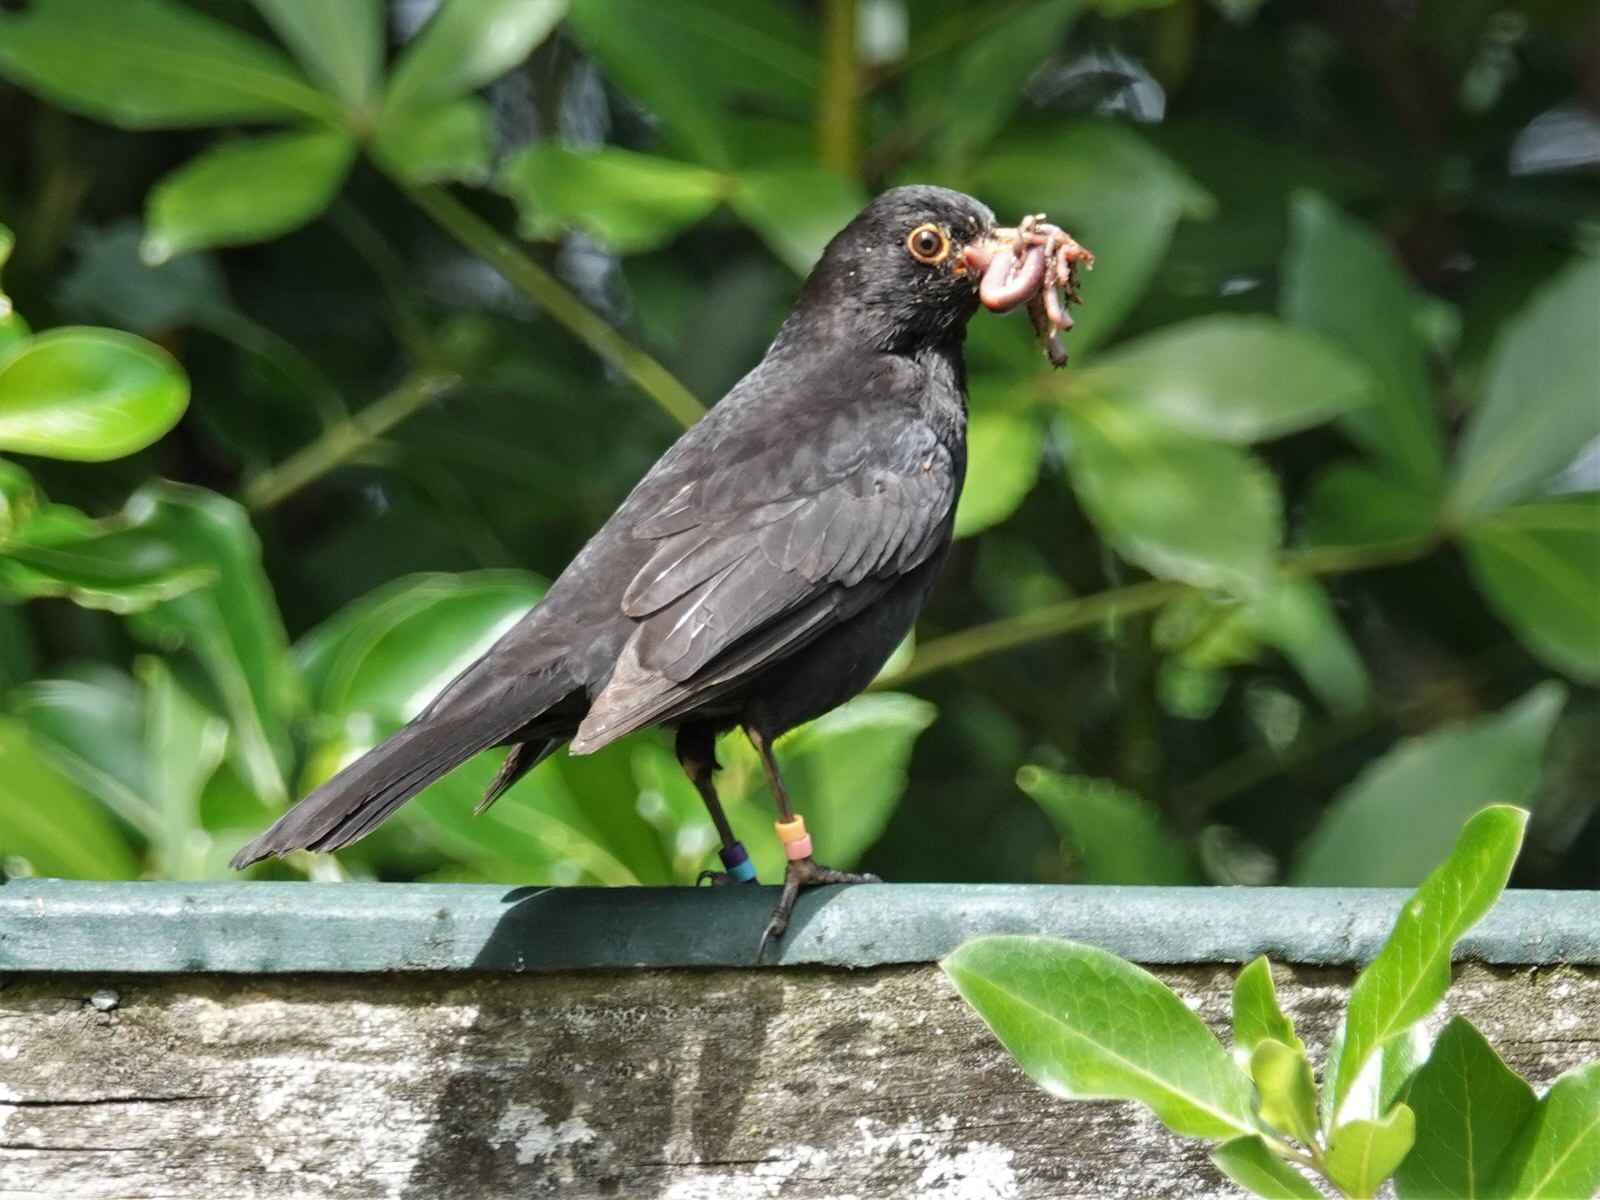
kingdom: Animalia
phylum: Chordata
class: Aves
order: Passeriformes
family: Turdidae
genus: Turdus
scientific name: Turdus merula
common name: Common blackbird
